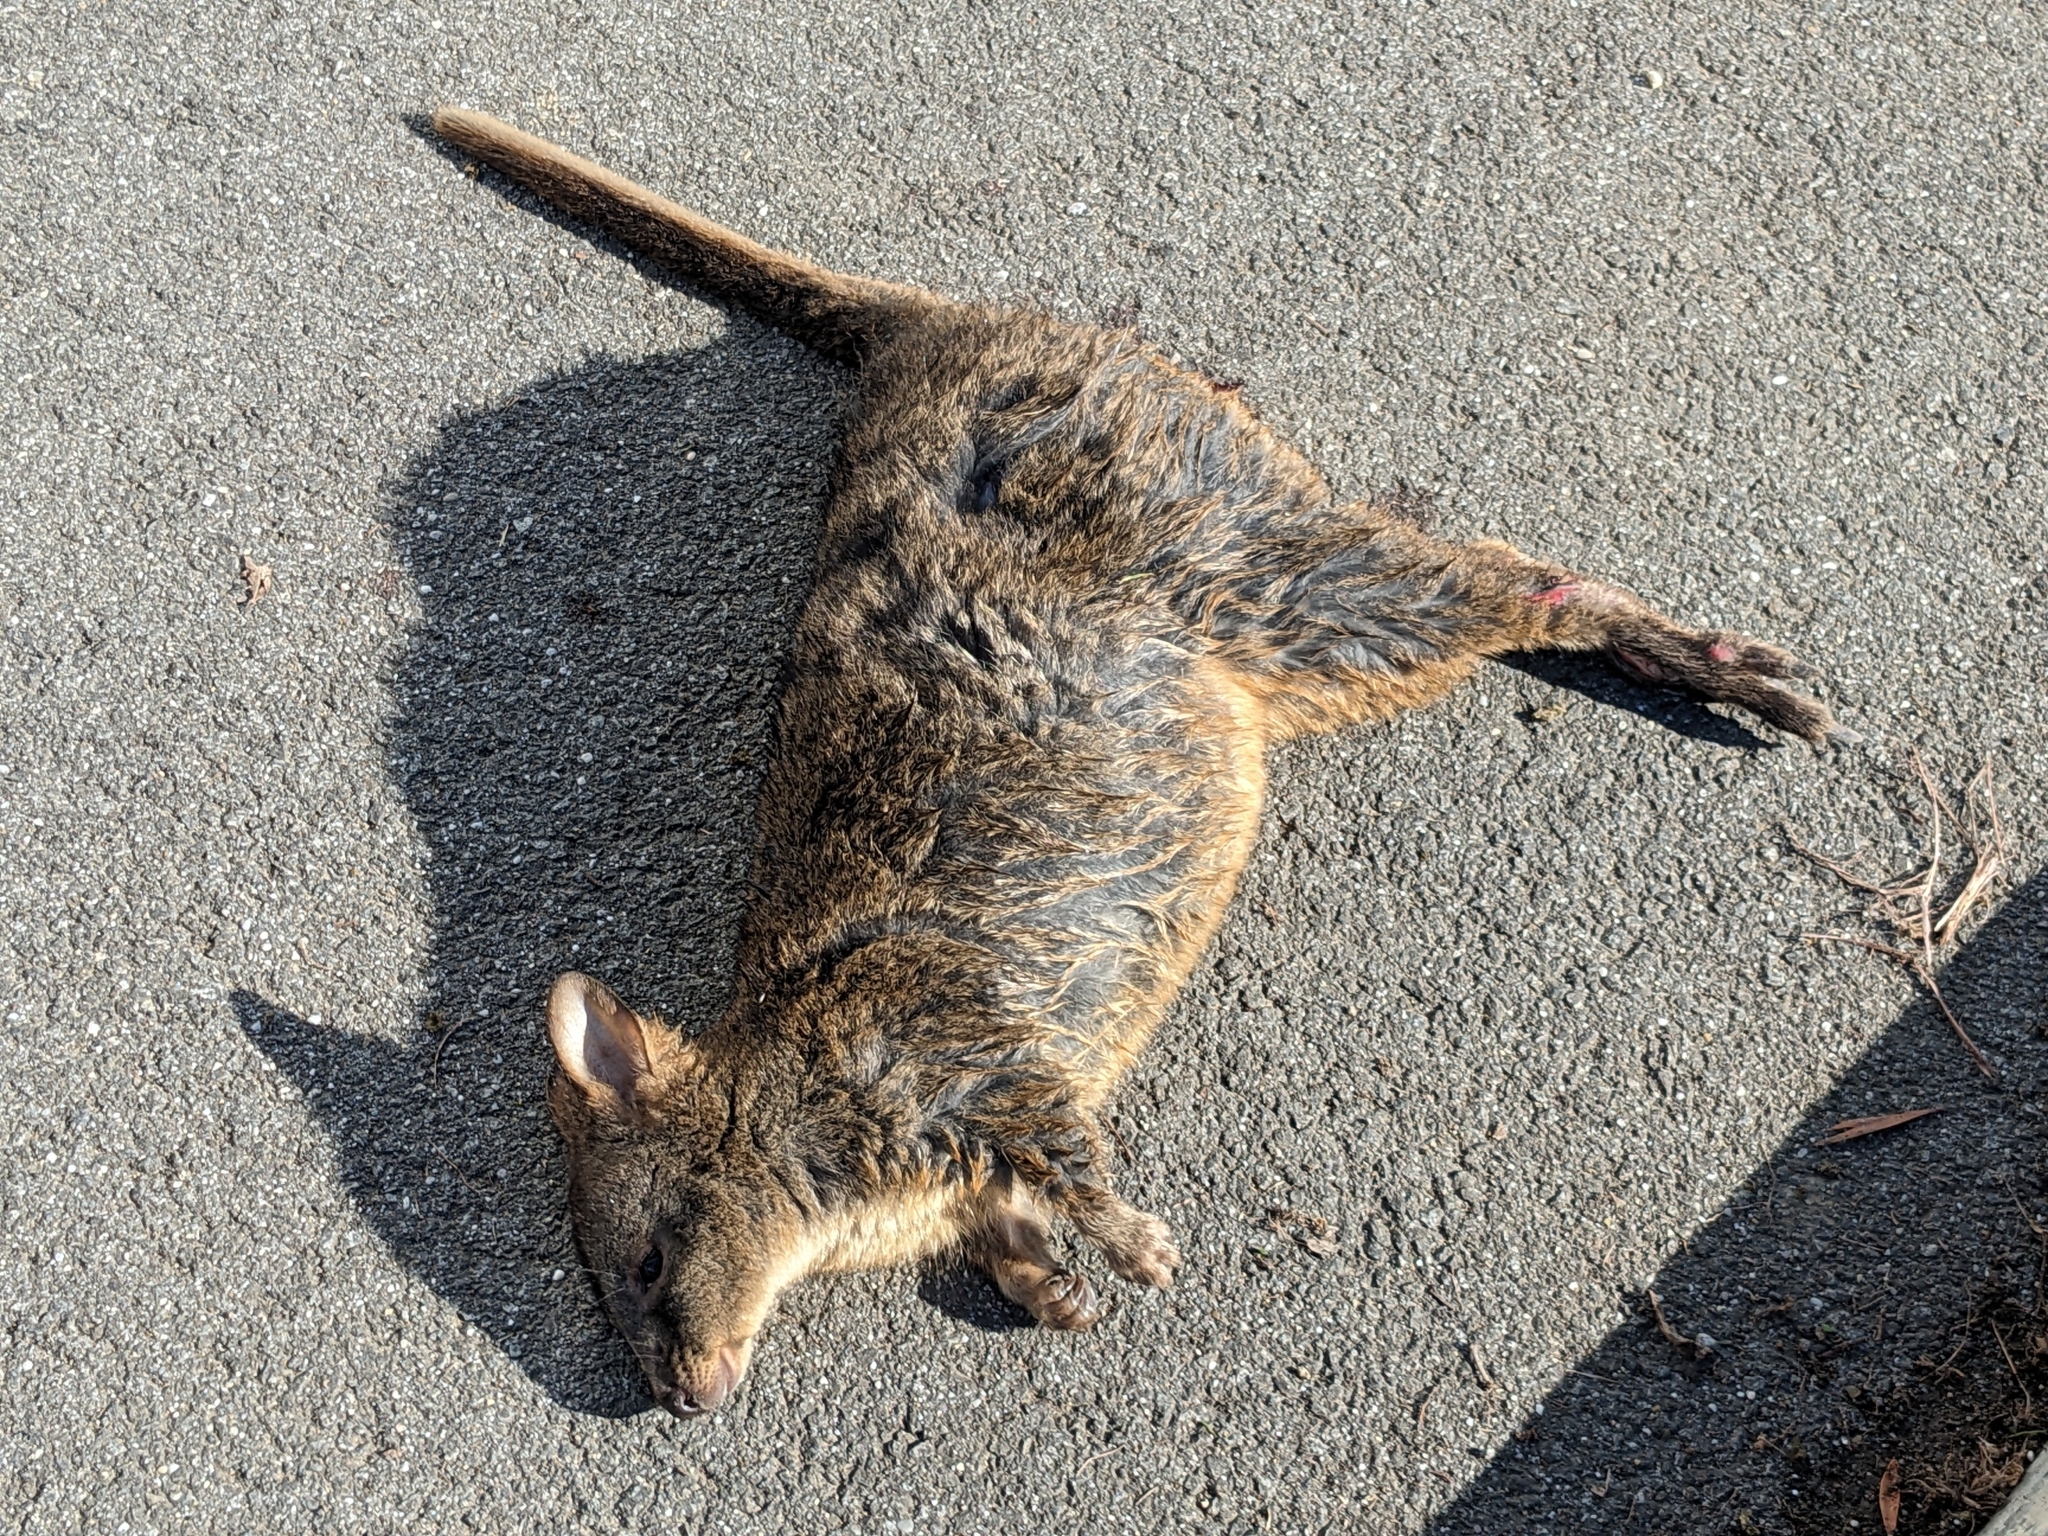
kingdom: Animalia
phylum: Chordata
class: Mammalia
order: Diprotodontia
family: Macropodidae
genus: Thylogale
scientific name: Thylogale billardierii
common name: Tasmanian pademelon
